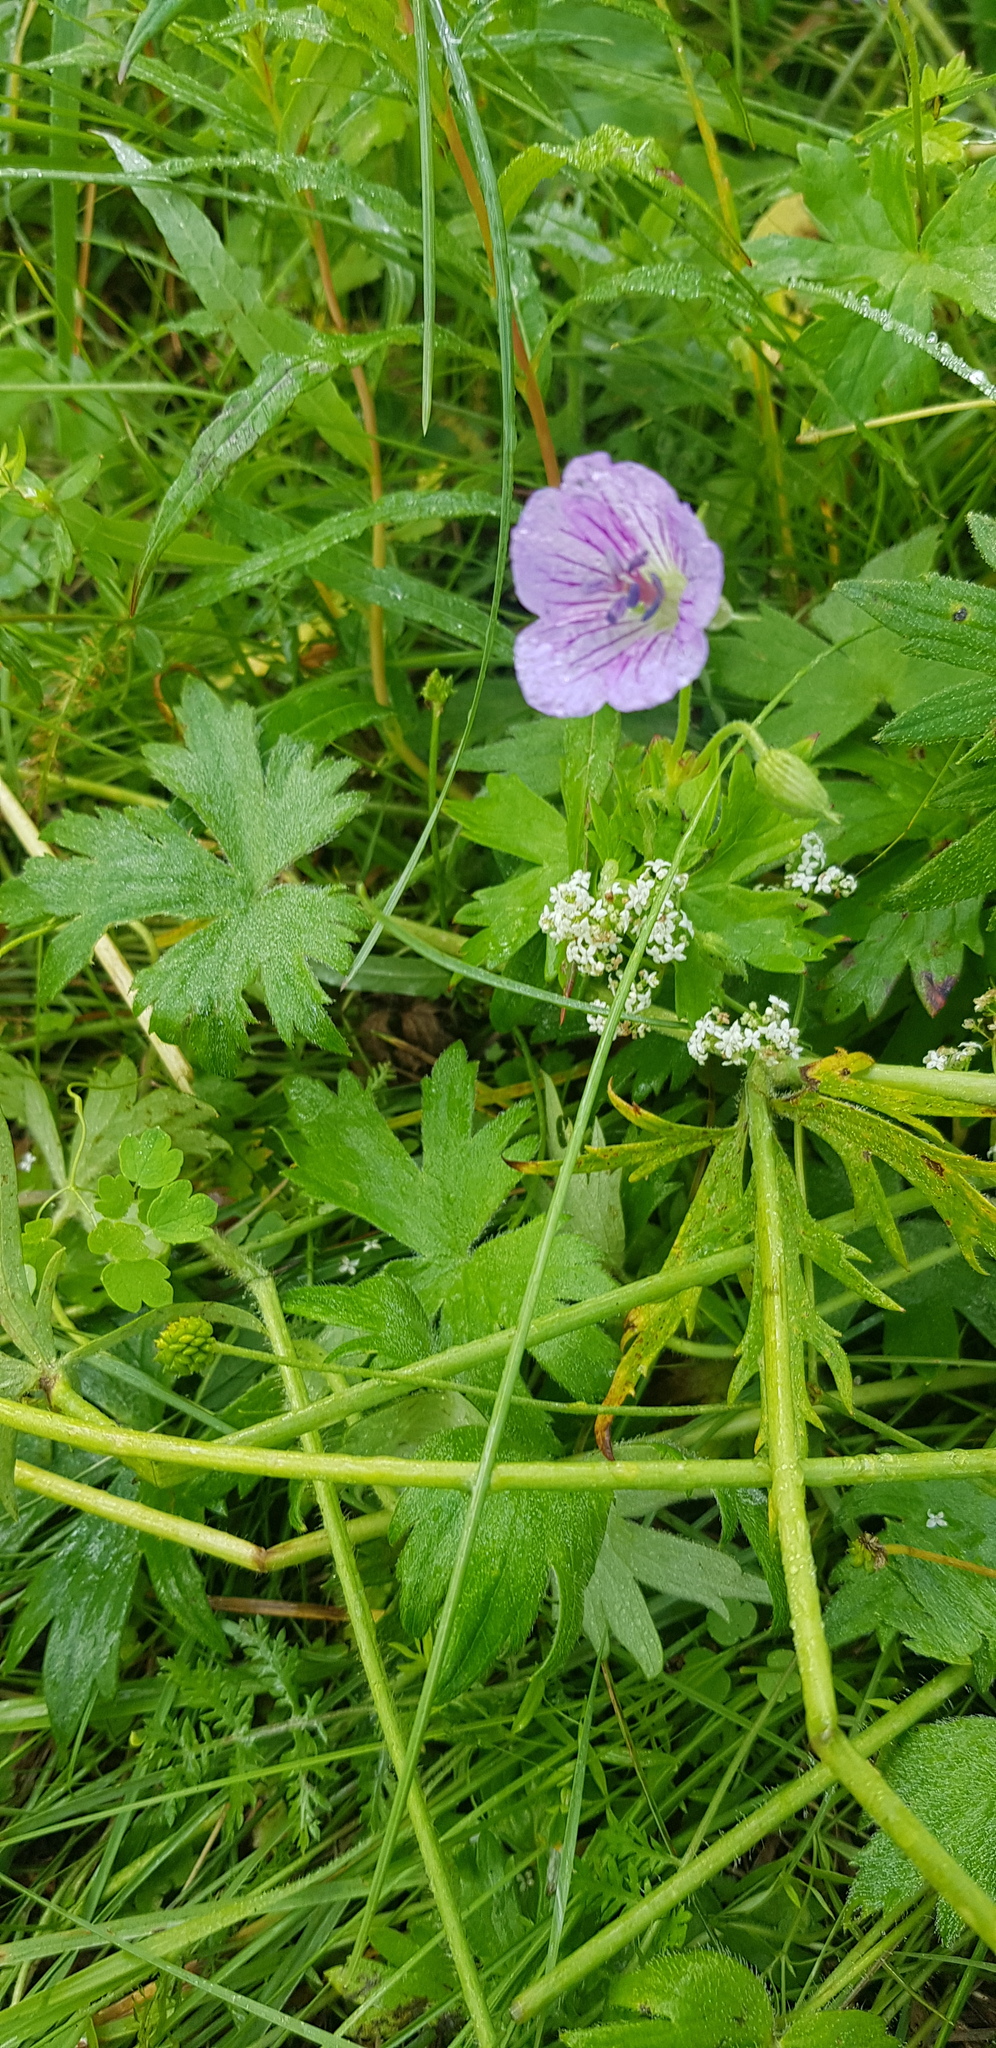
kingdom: Plantae
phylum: Tracheophyta
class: Magnoliopsida
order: Geraniales
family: Geraniaceae
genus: Geranium
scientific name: Geranium wlassovianum
